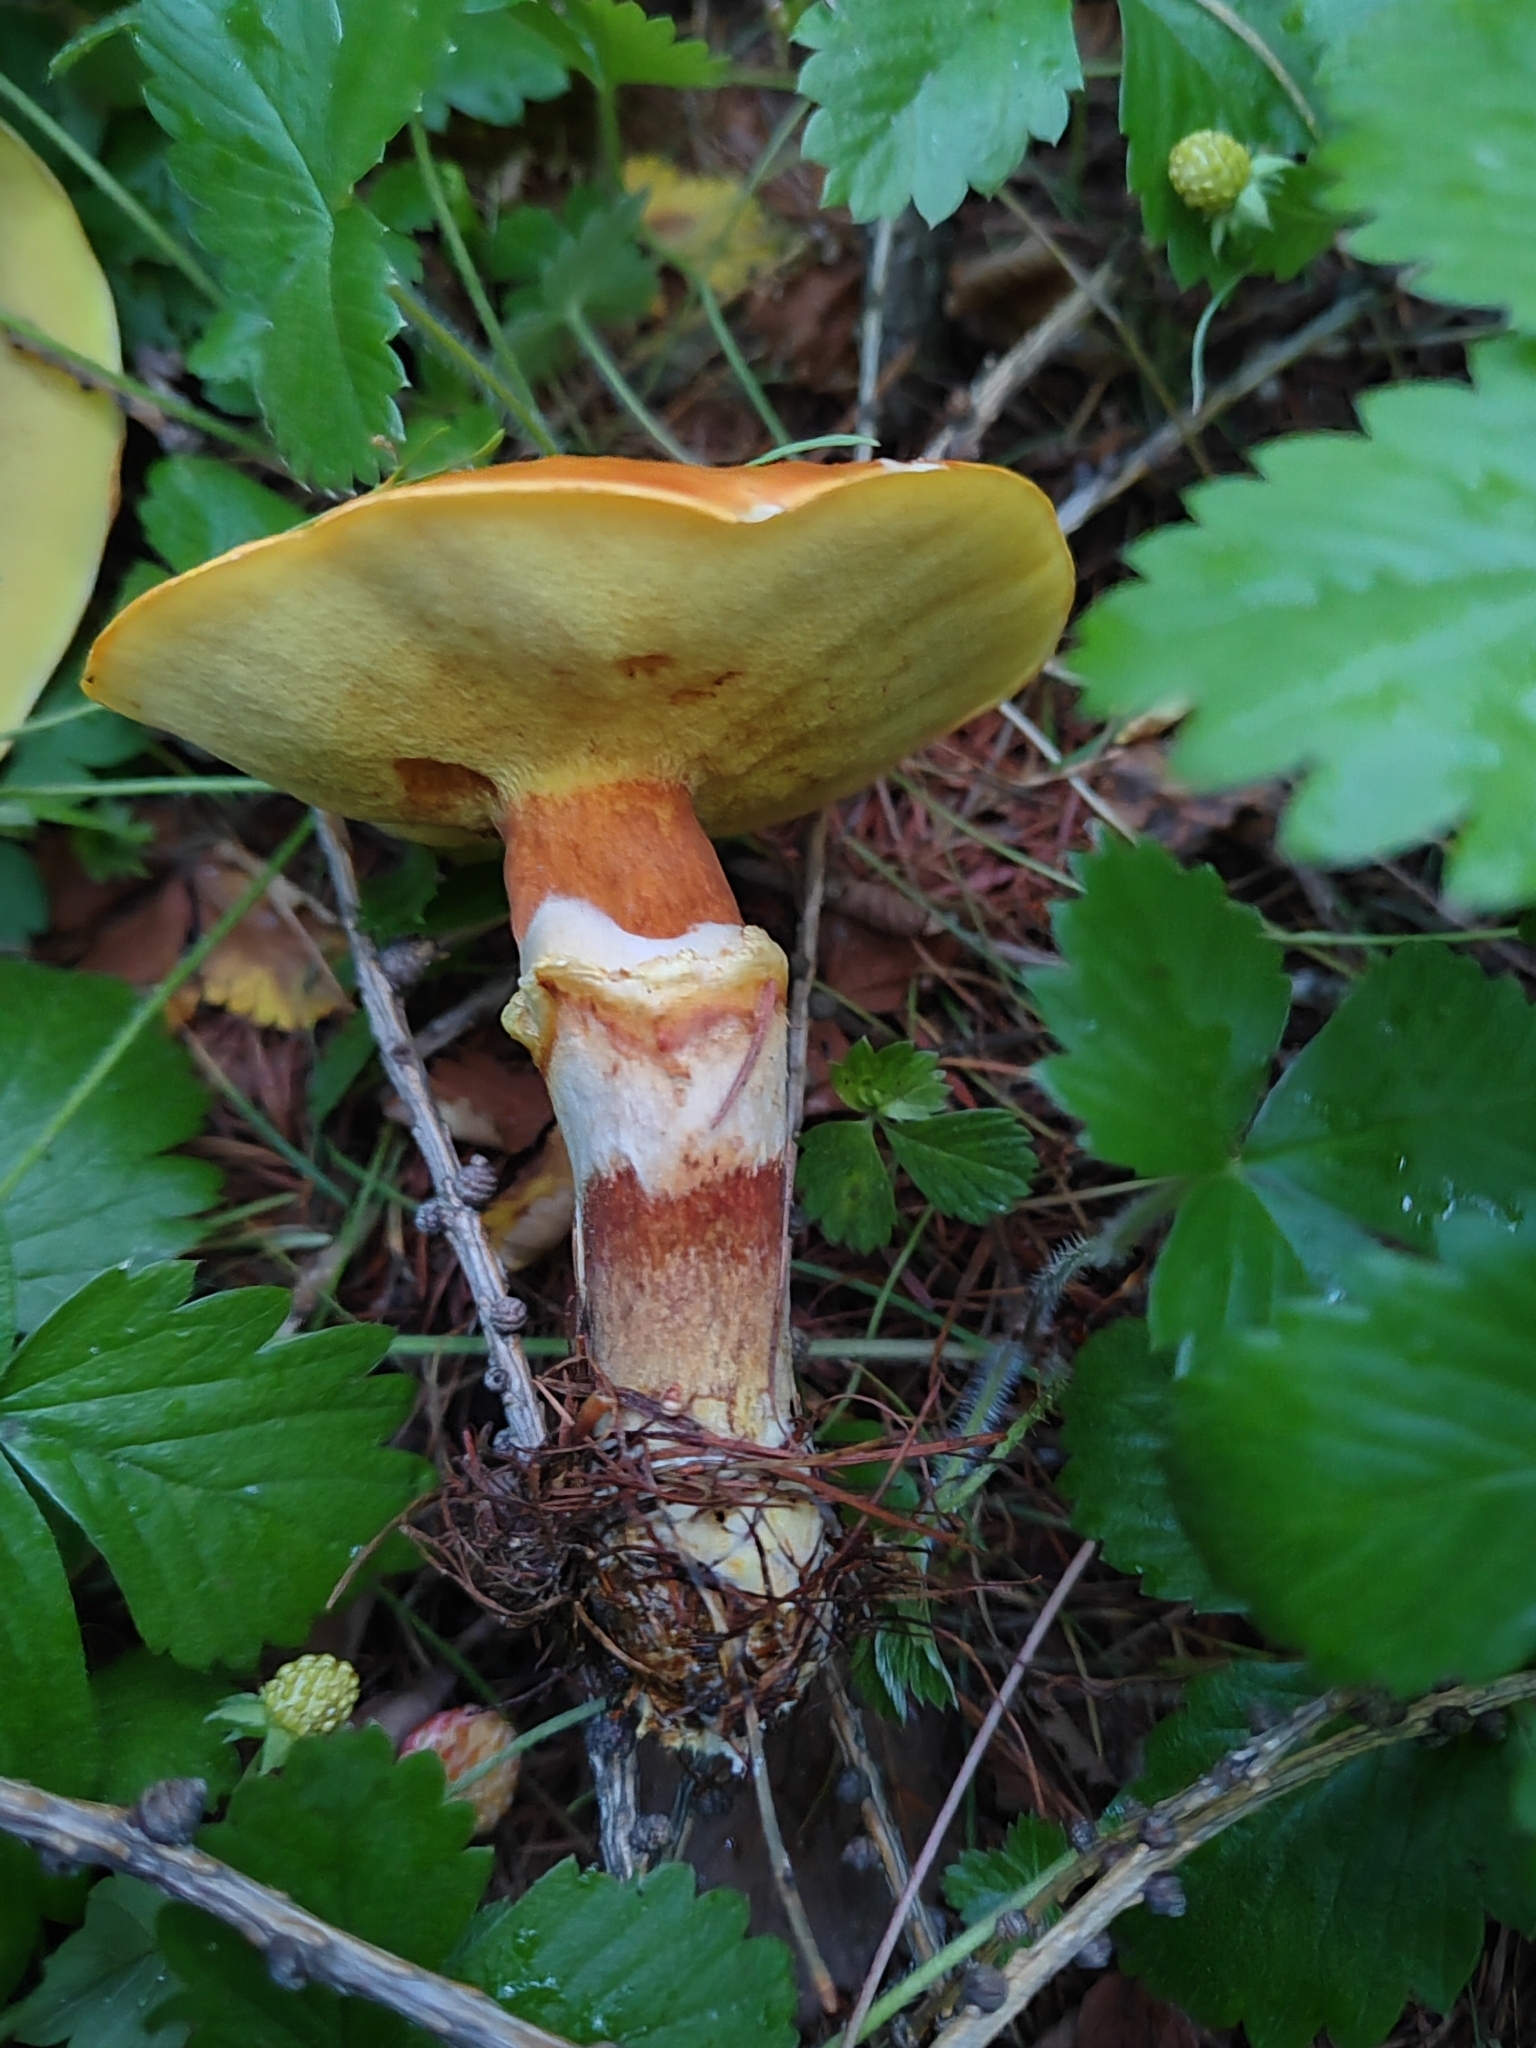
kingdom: Fungi
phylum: Basidiomycota
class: Agaricomycetes
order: Boletales
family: Suillaceae
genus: Suillus
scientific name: Suillus grevillei
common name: Larch bolete
